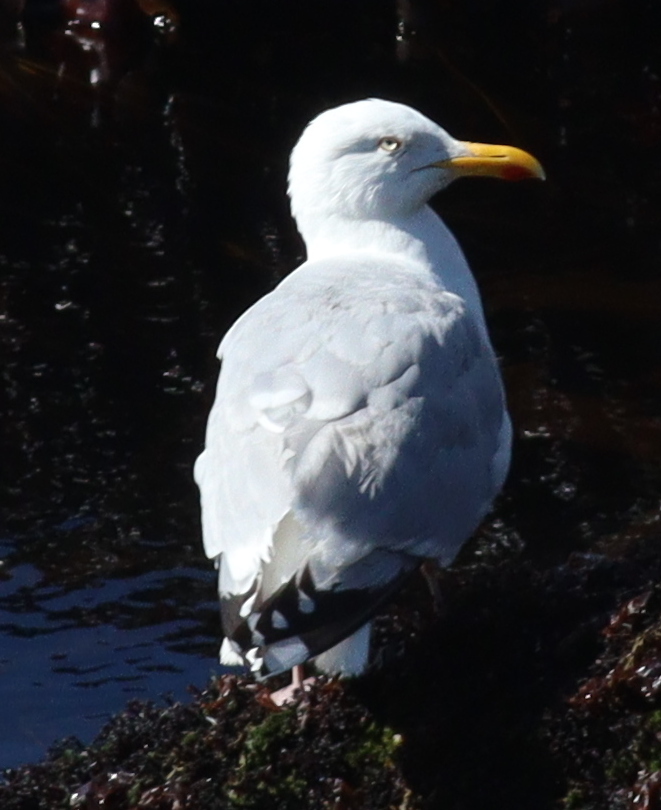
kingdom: Animalia
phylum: Chordata
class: Aves
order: Charadriiformes
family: Laridae
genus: Larus
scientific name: Larus argentatus
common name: Herring gull
